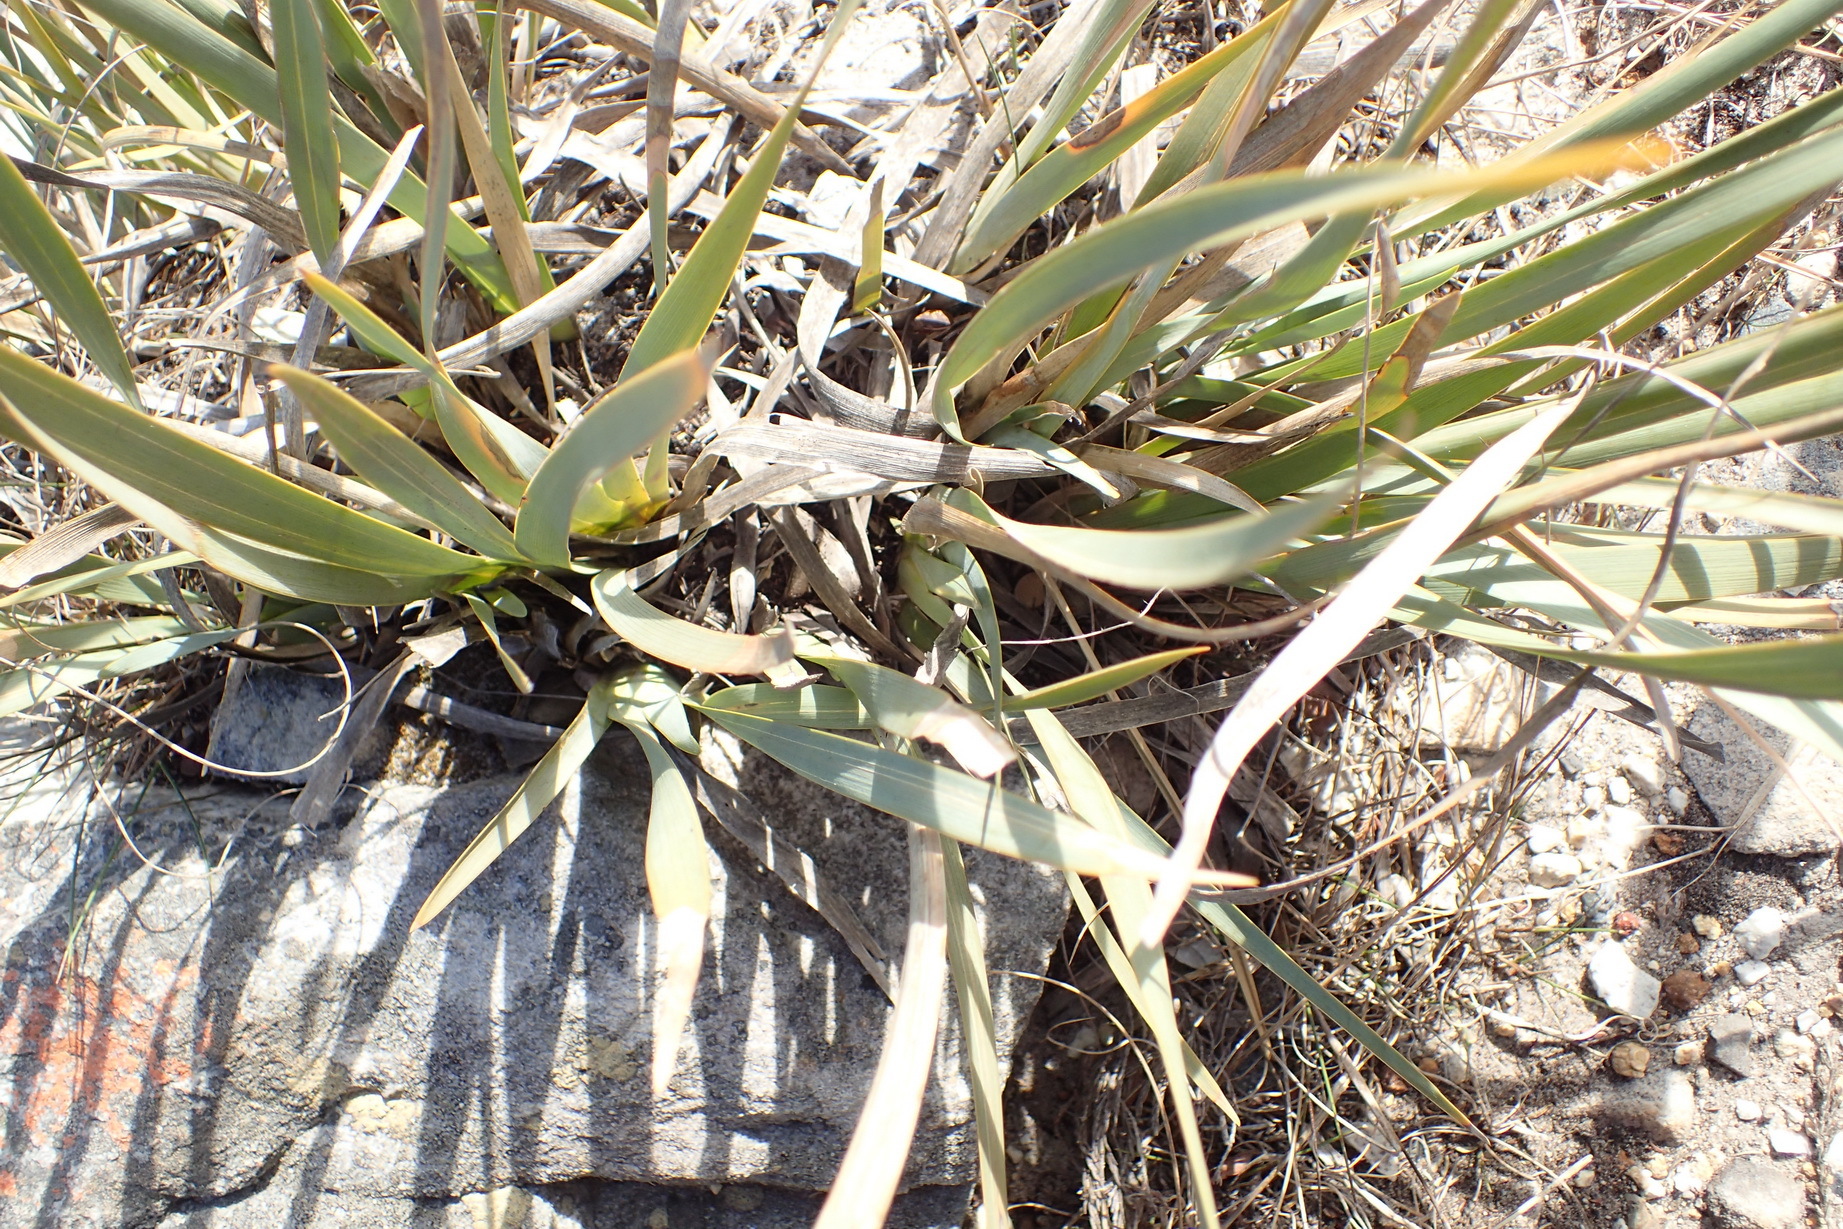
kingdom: Plantae
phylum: Tracheophyta
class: Liliopsida
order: Asparagales
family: Iridaceae
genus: Bobartia
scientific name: Bobartia gladiata
